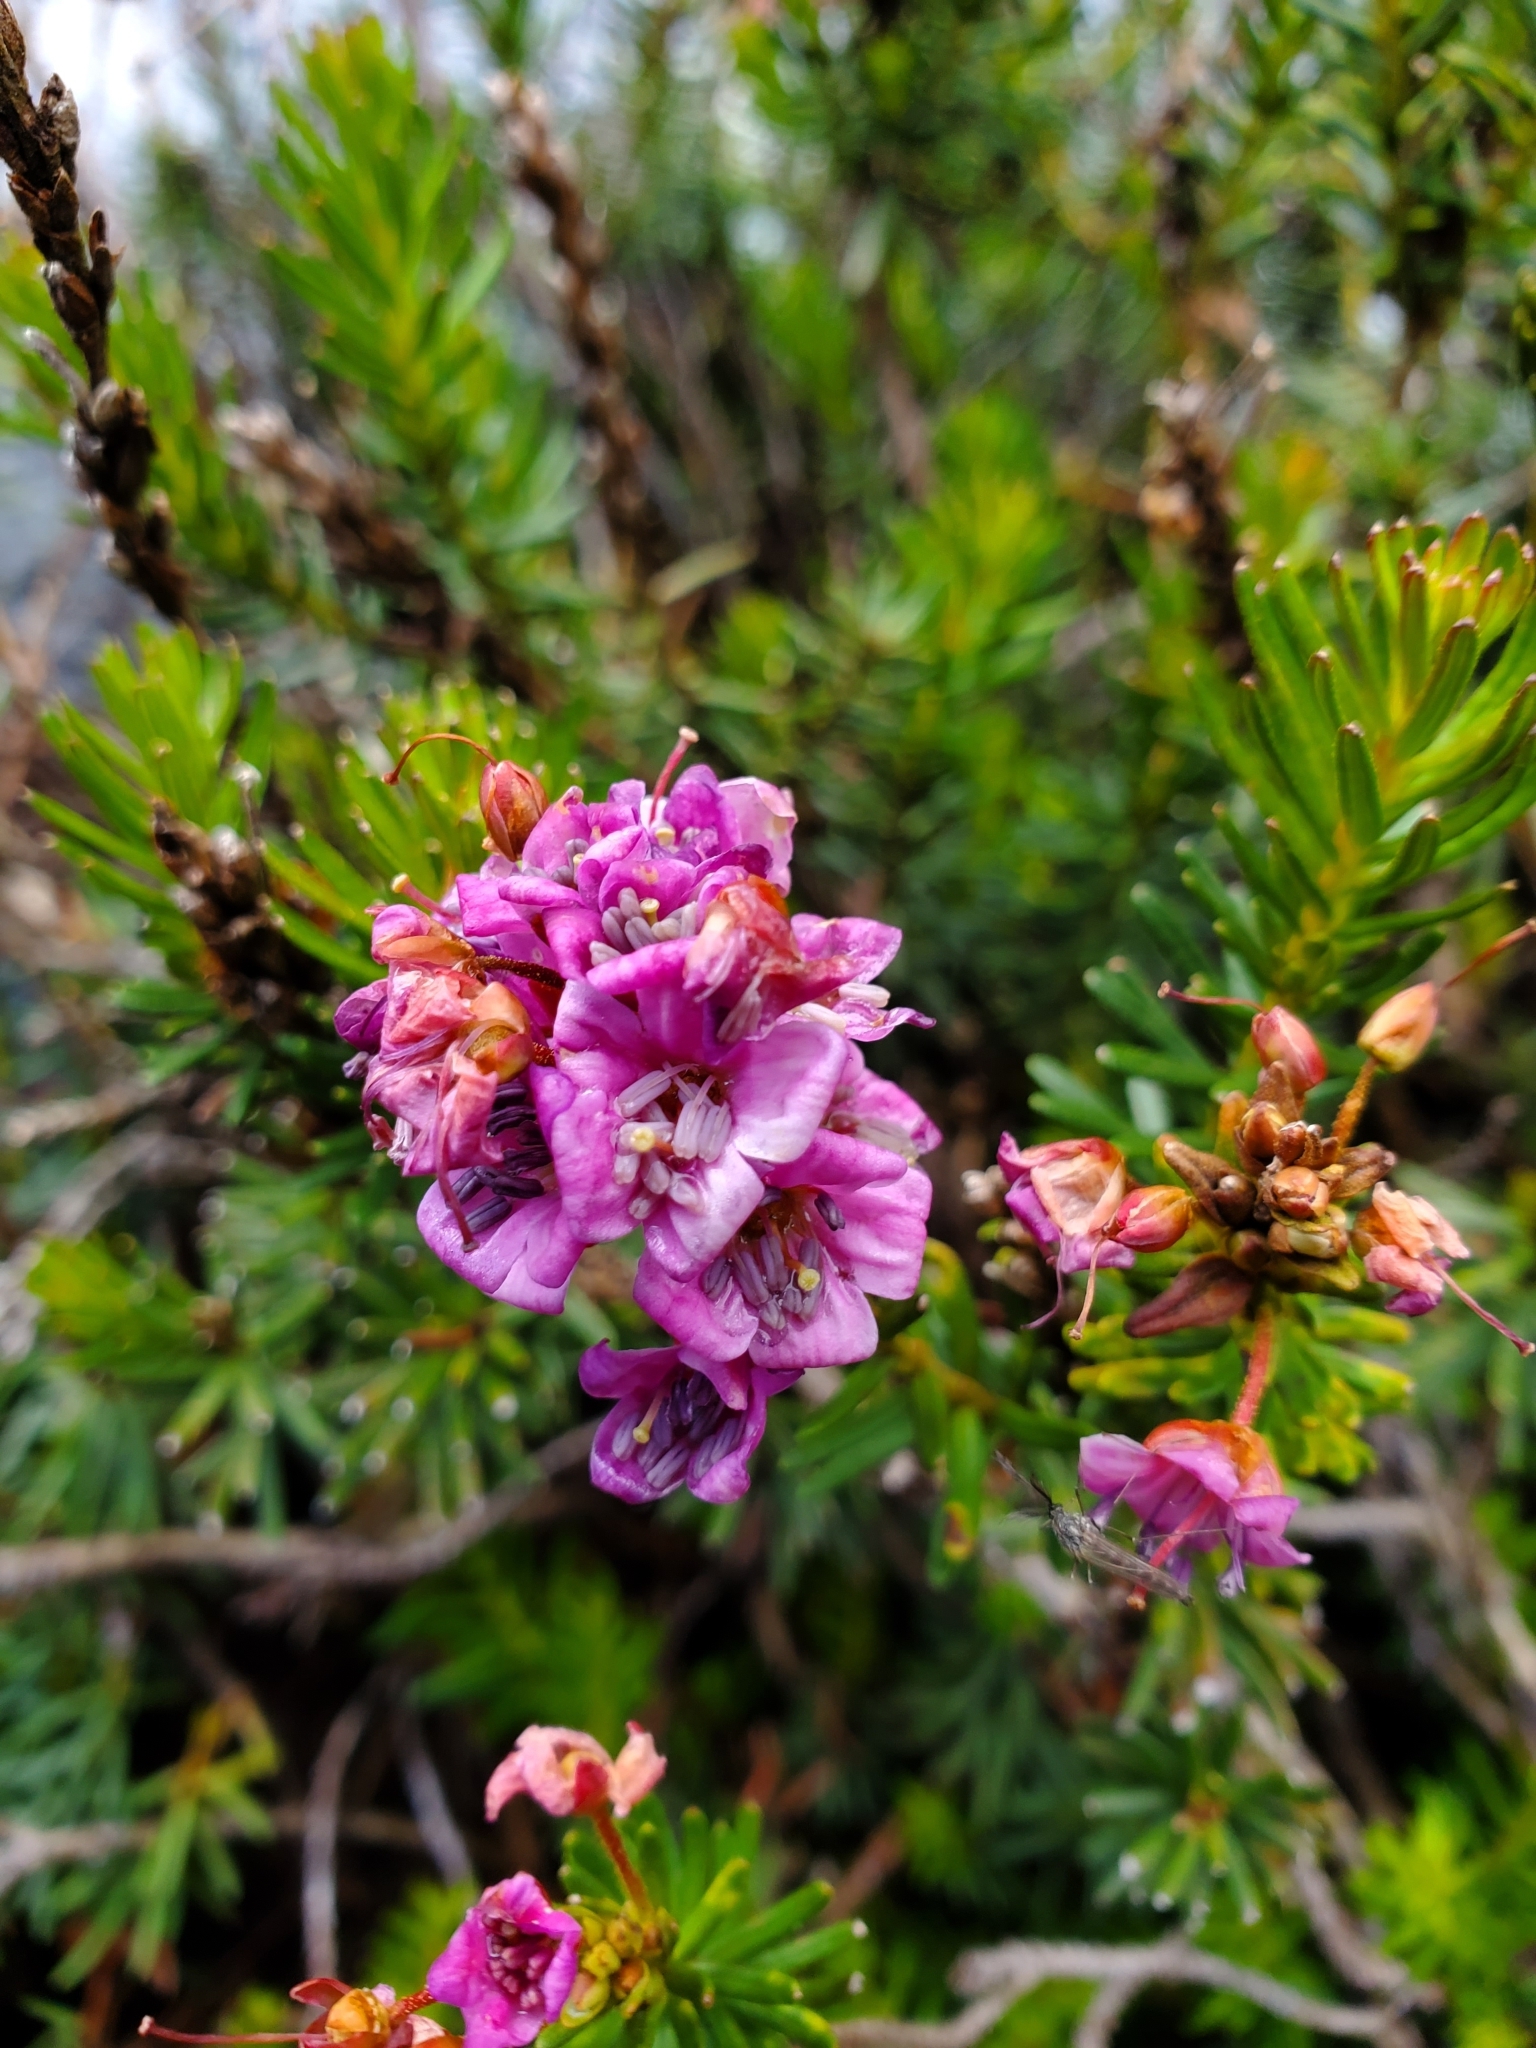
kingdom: Plantae
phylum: Tracheophyta
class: Magnoliopsida
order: Ericales
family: Ericaceae
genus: Phyllodoce
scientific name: Phyllodoce breweri
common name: Brewer's mountain-heather
